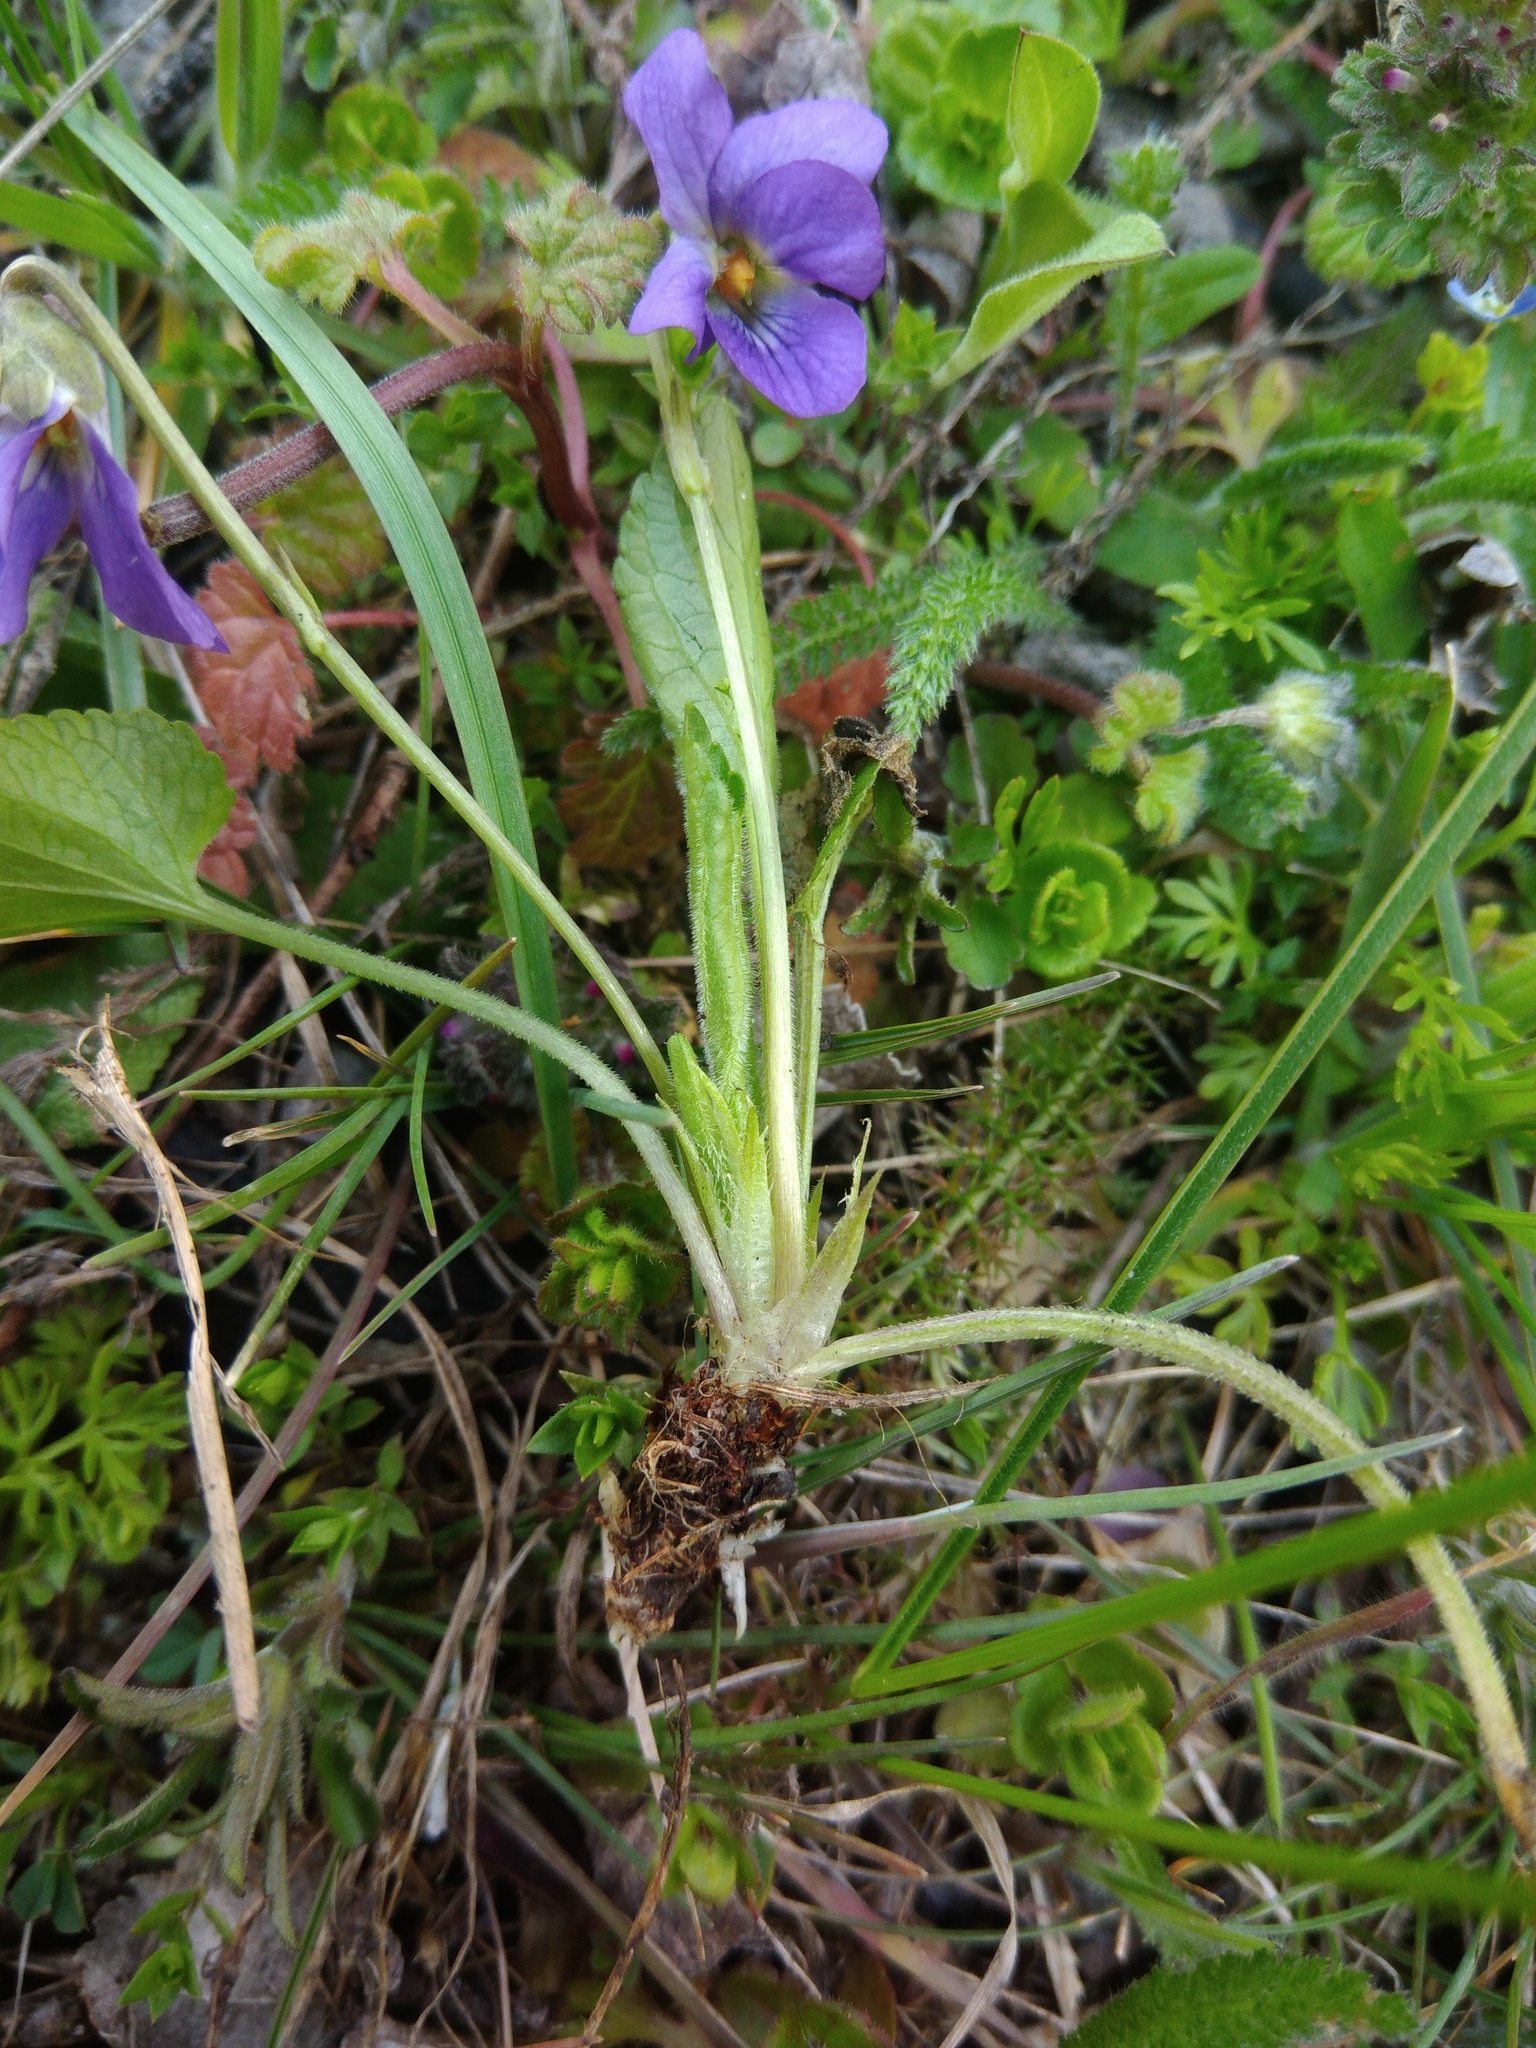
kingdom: Plantae
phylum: Tracheophyta
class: Magnoliopsida
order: Malpighiales
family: Violaceae
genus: Viola
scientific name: Viola ambigua
